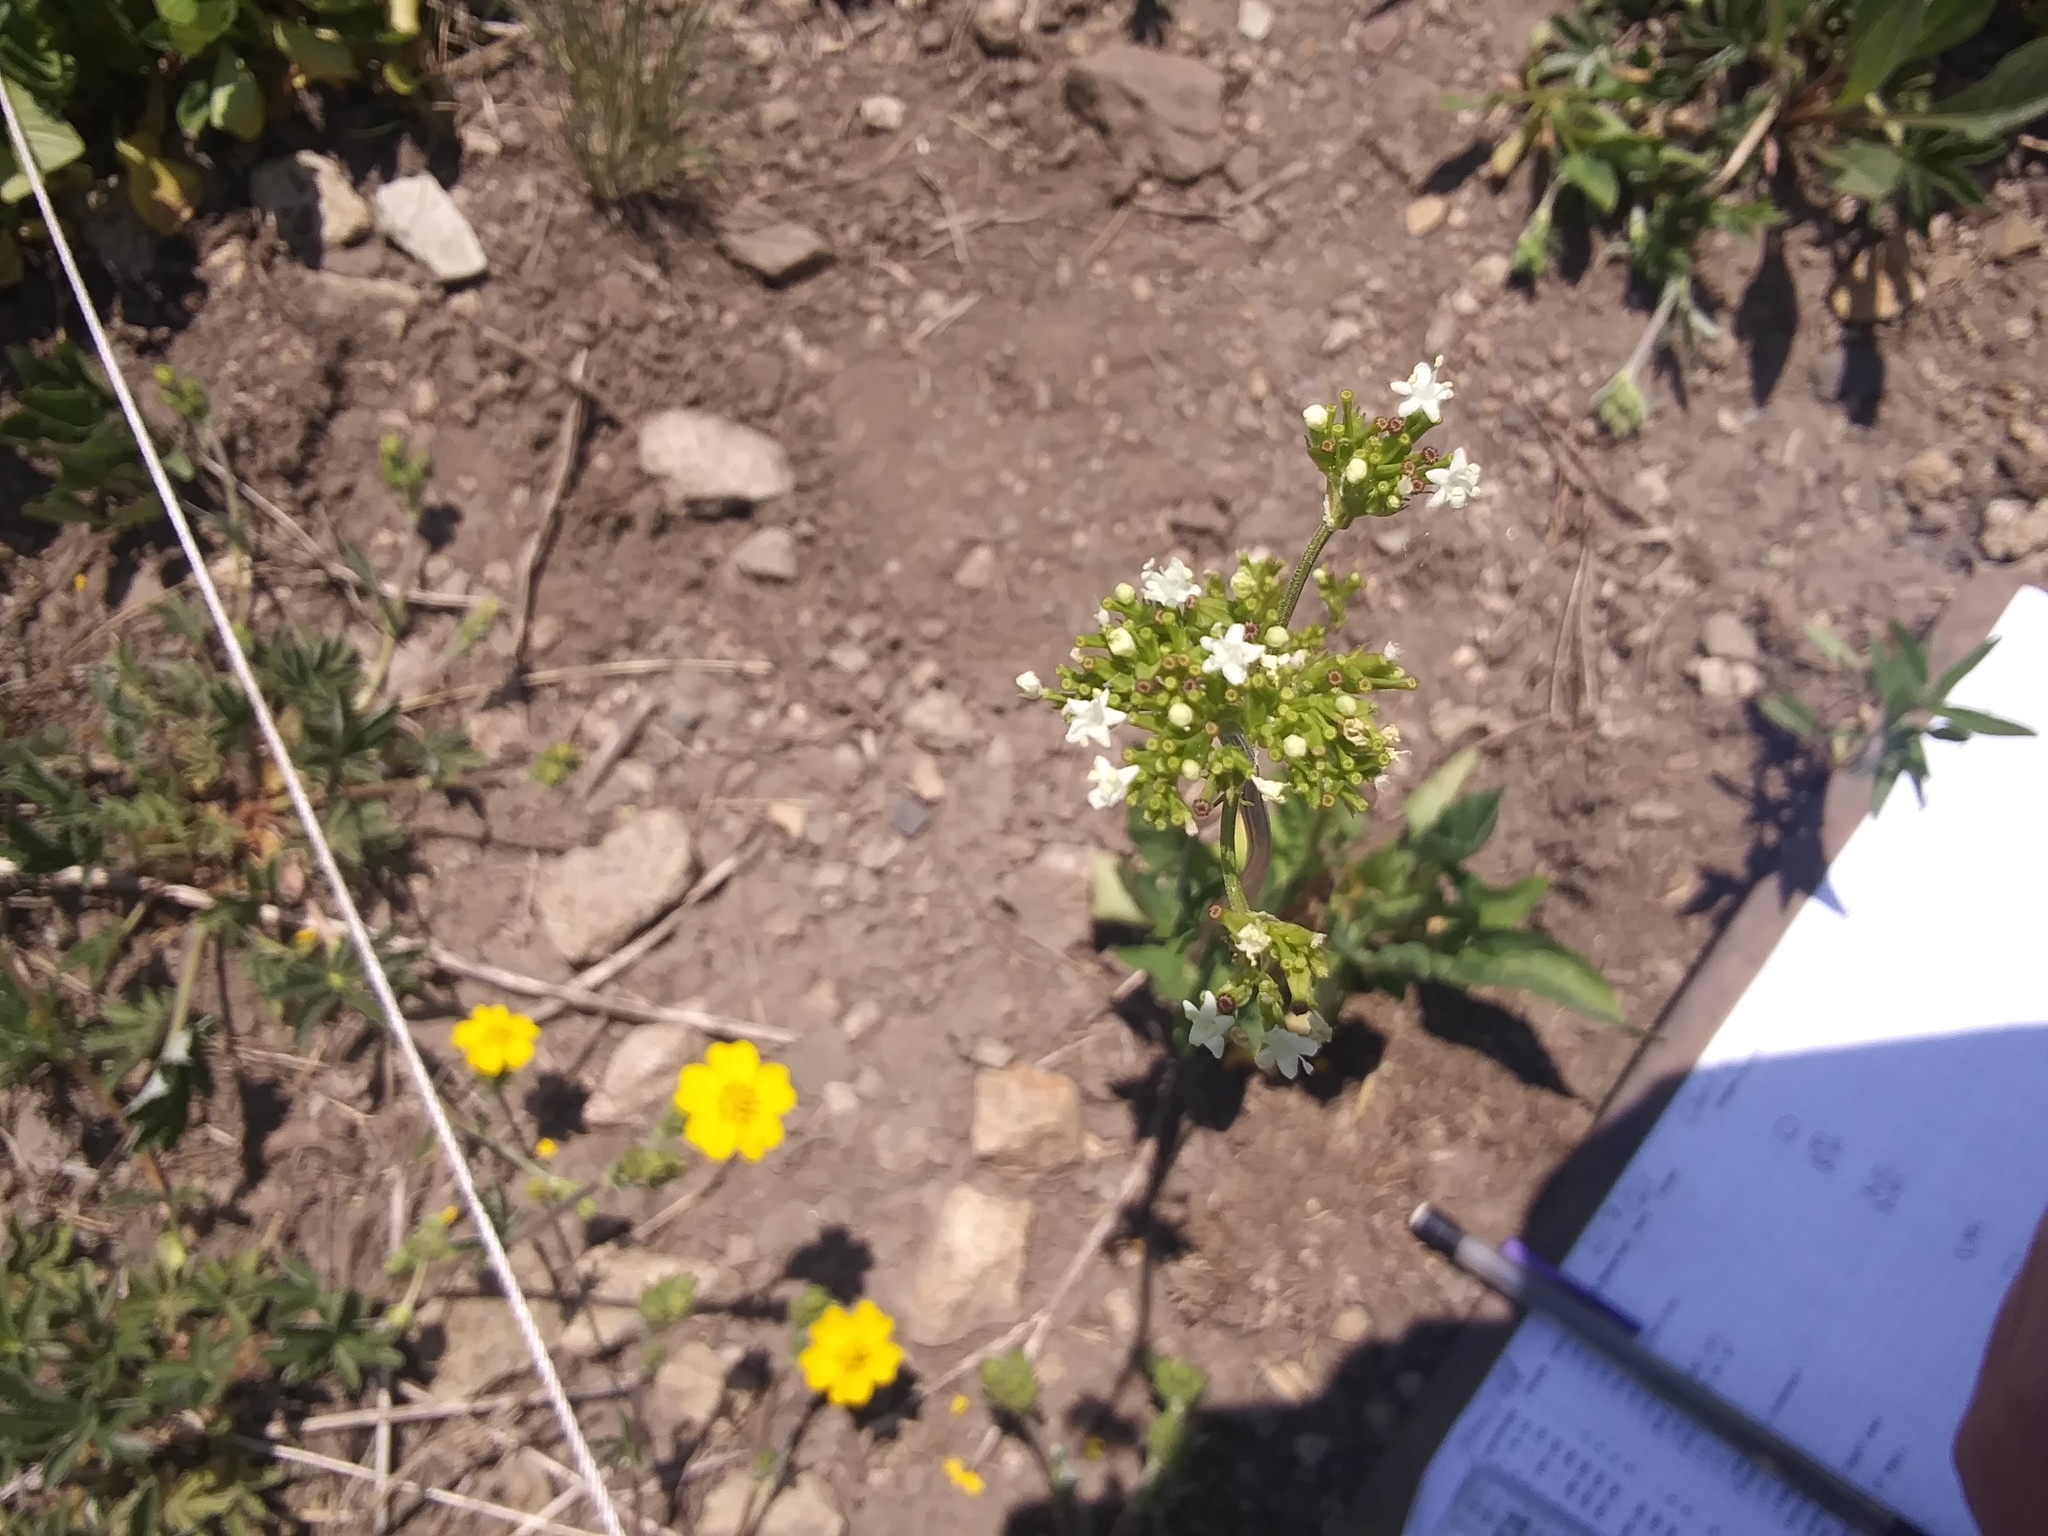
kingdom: Plantae
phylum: Tracheophyta
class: Magnoliopsida
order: Dipsacales
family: Caprifoliaceae
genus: Valeriana
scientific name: Valeriana occidentalis
